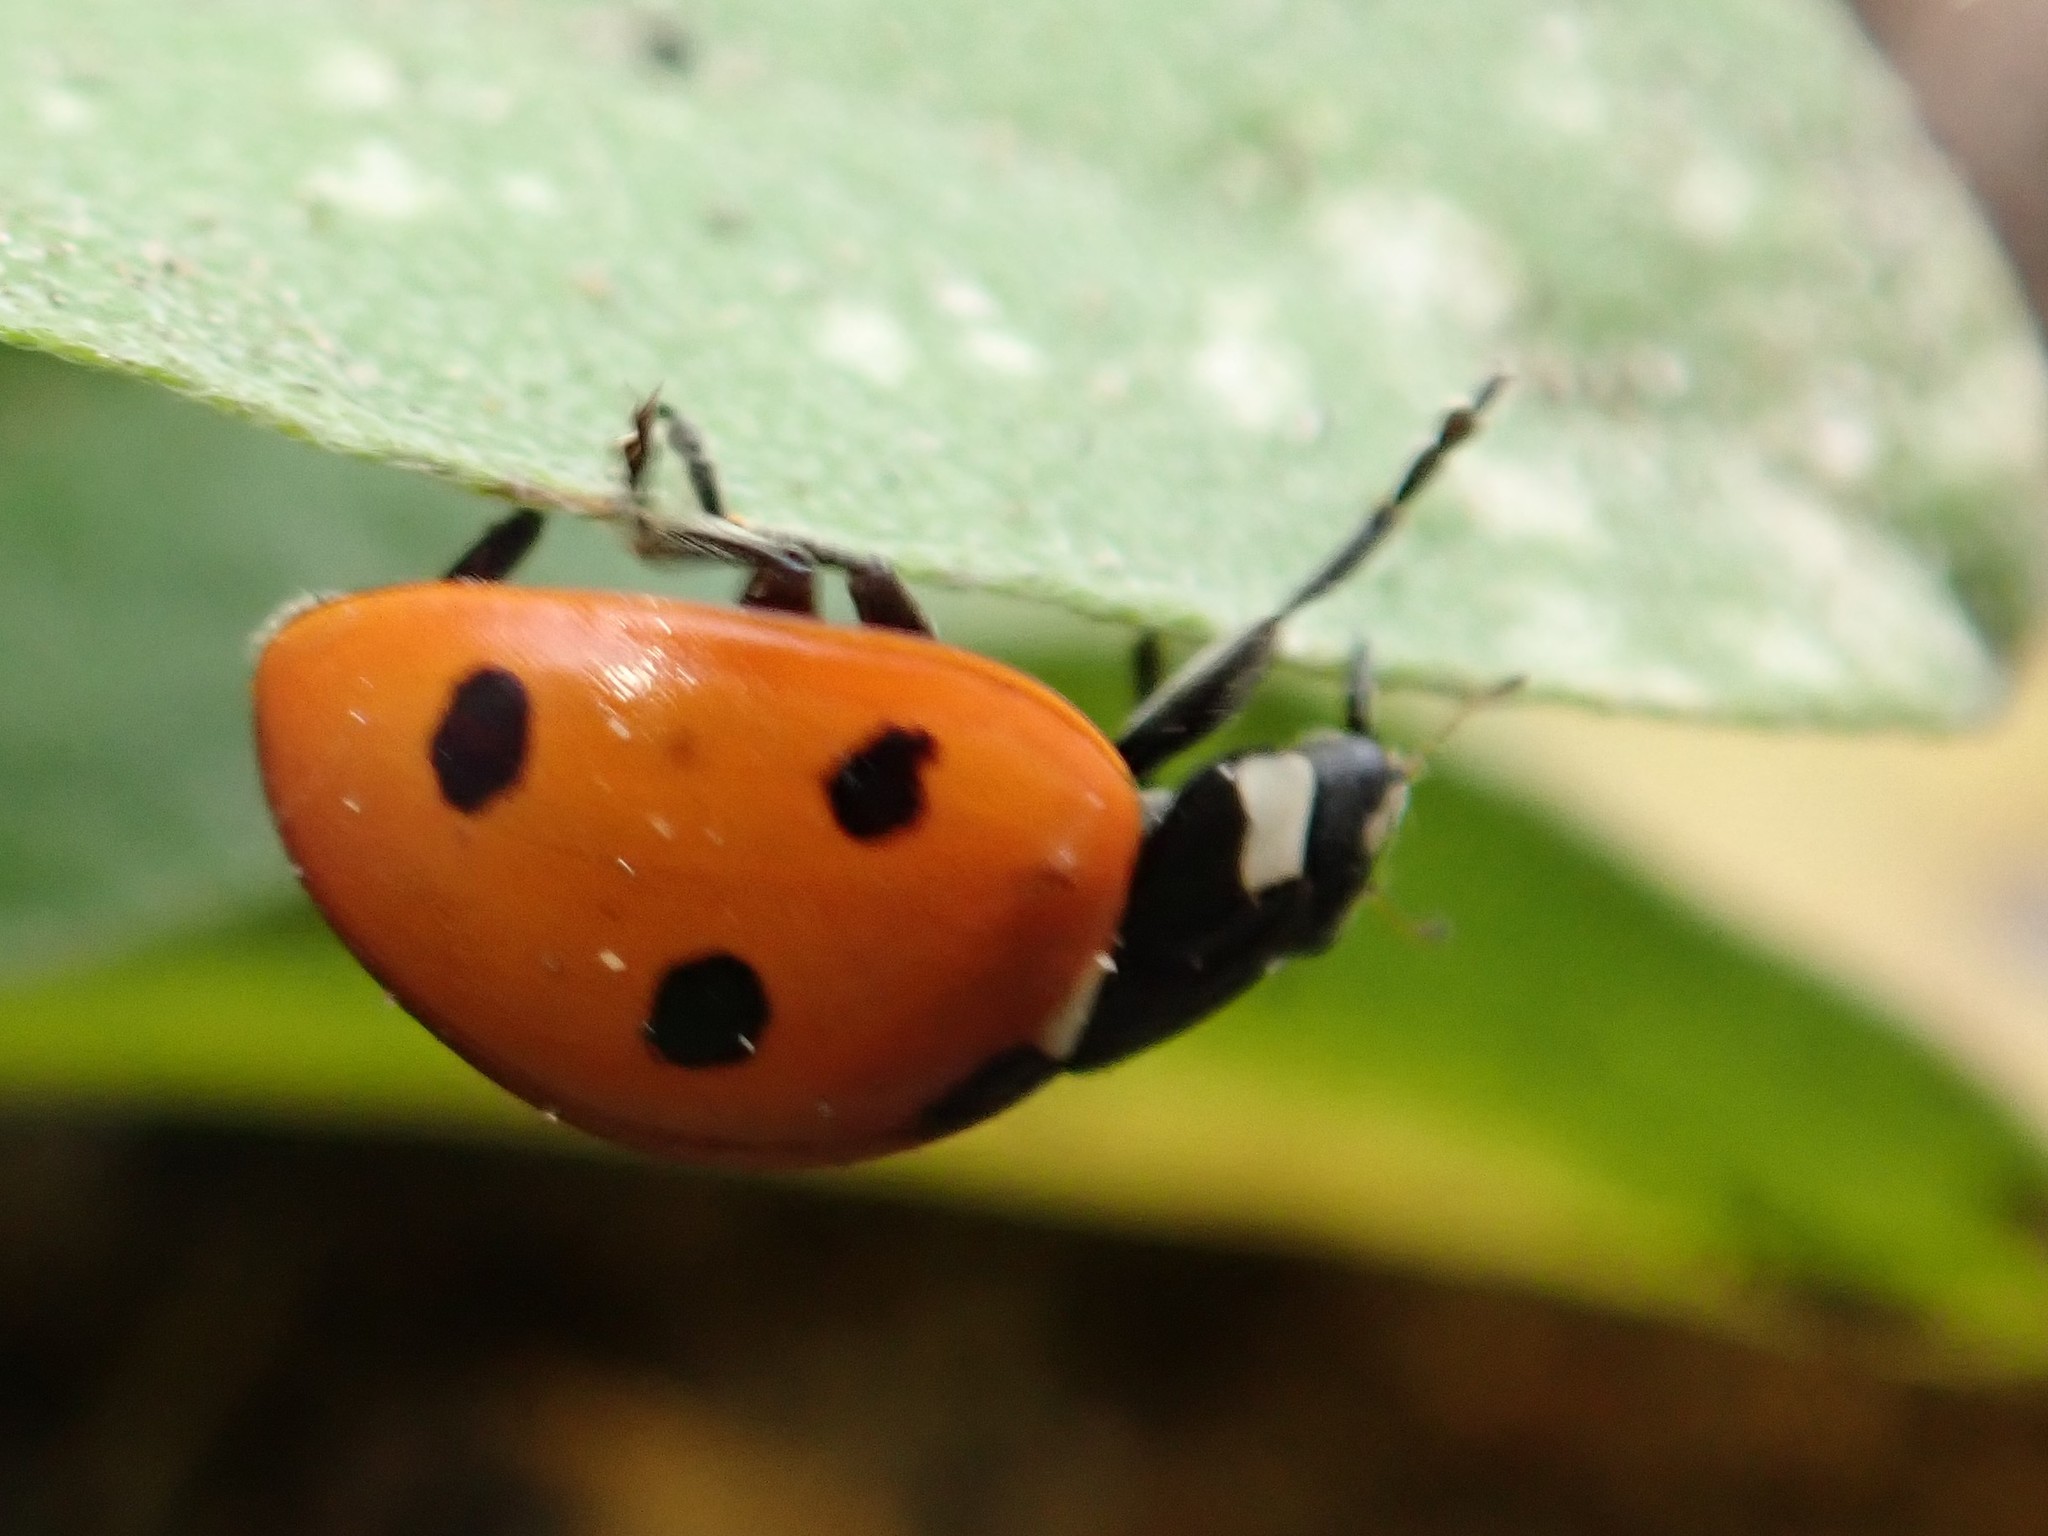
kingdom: Animalia
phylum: Arthropoda
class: Insecta
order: Coleoptera
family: Coccinellidae
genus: Coccinella
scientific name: Coccinella septempunctata
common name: Sevenspotted lady beetle
